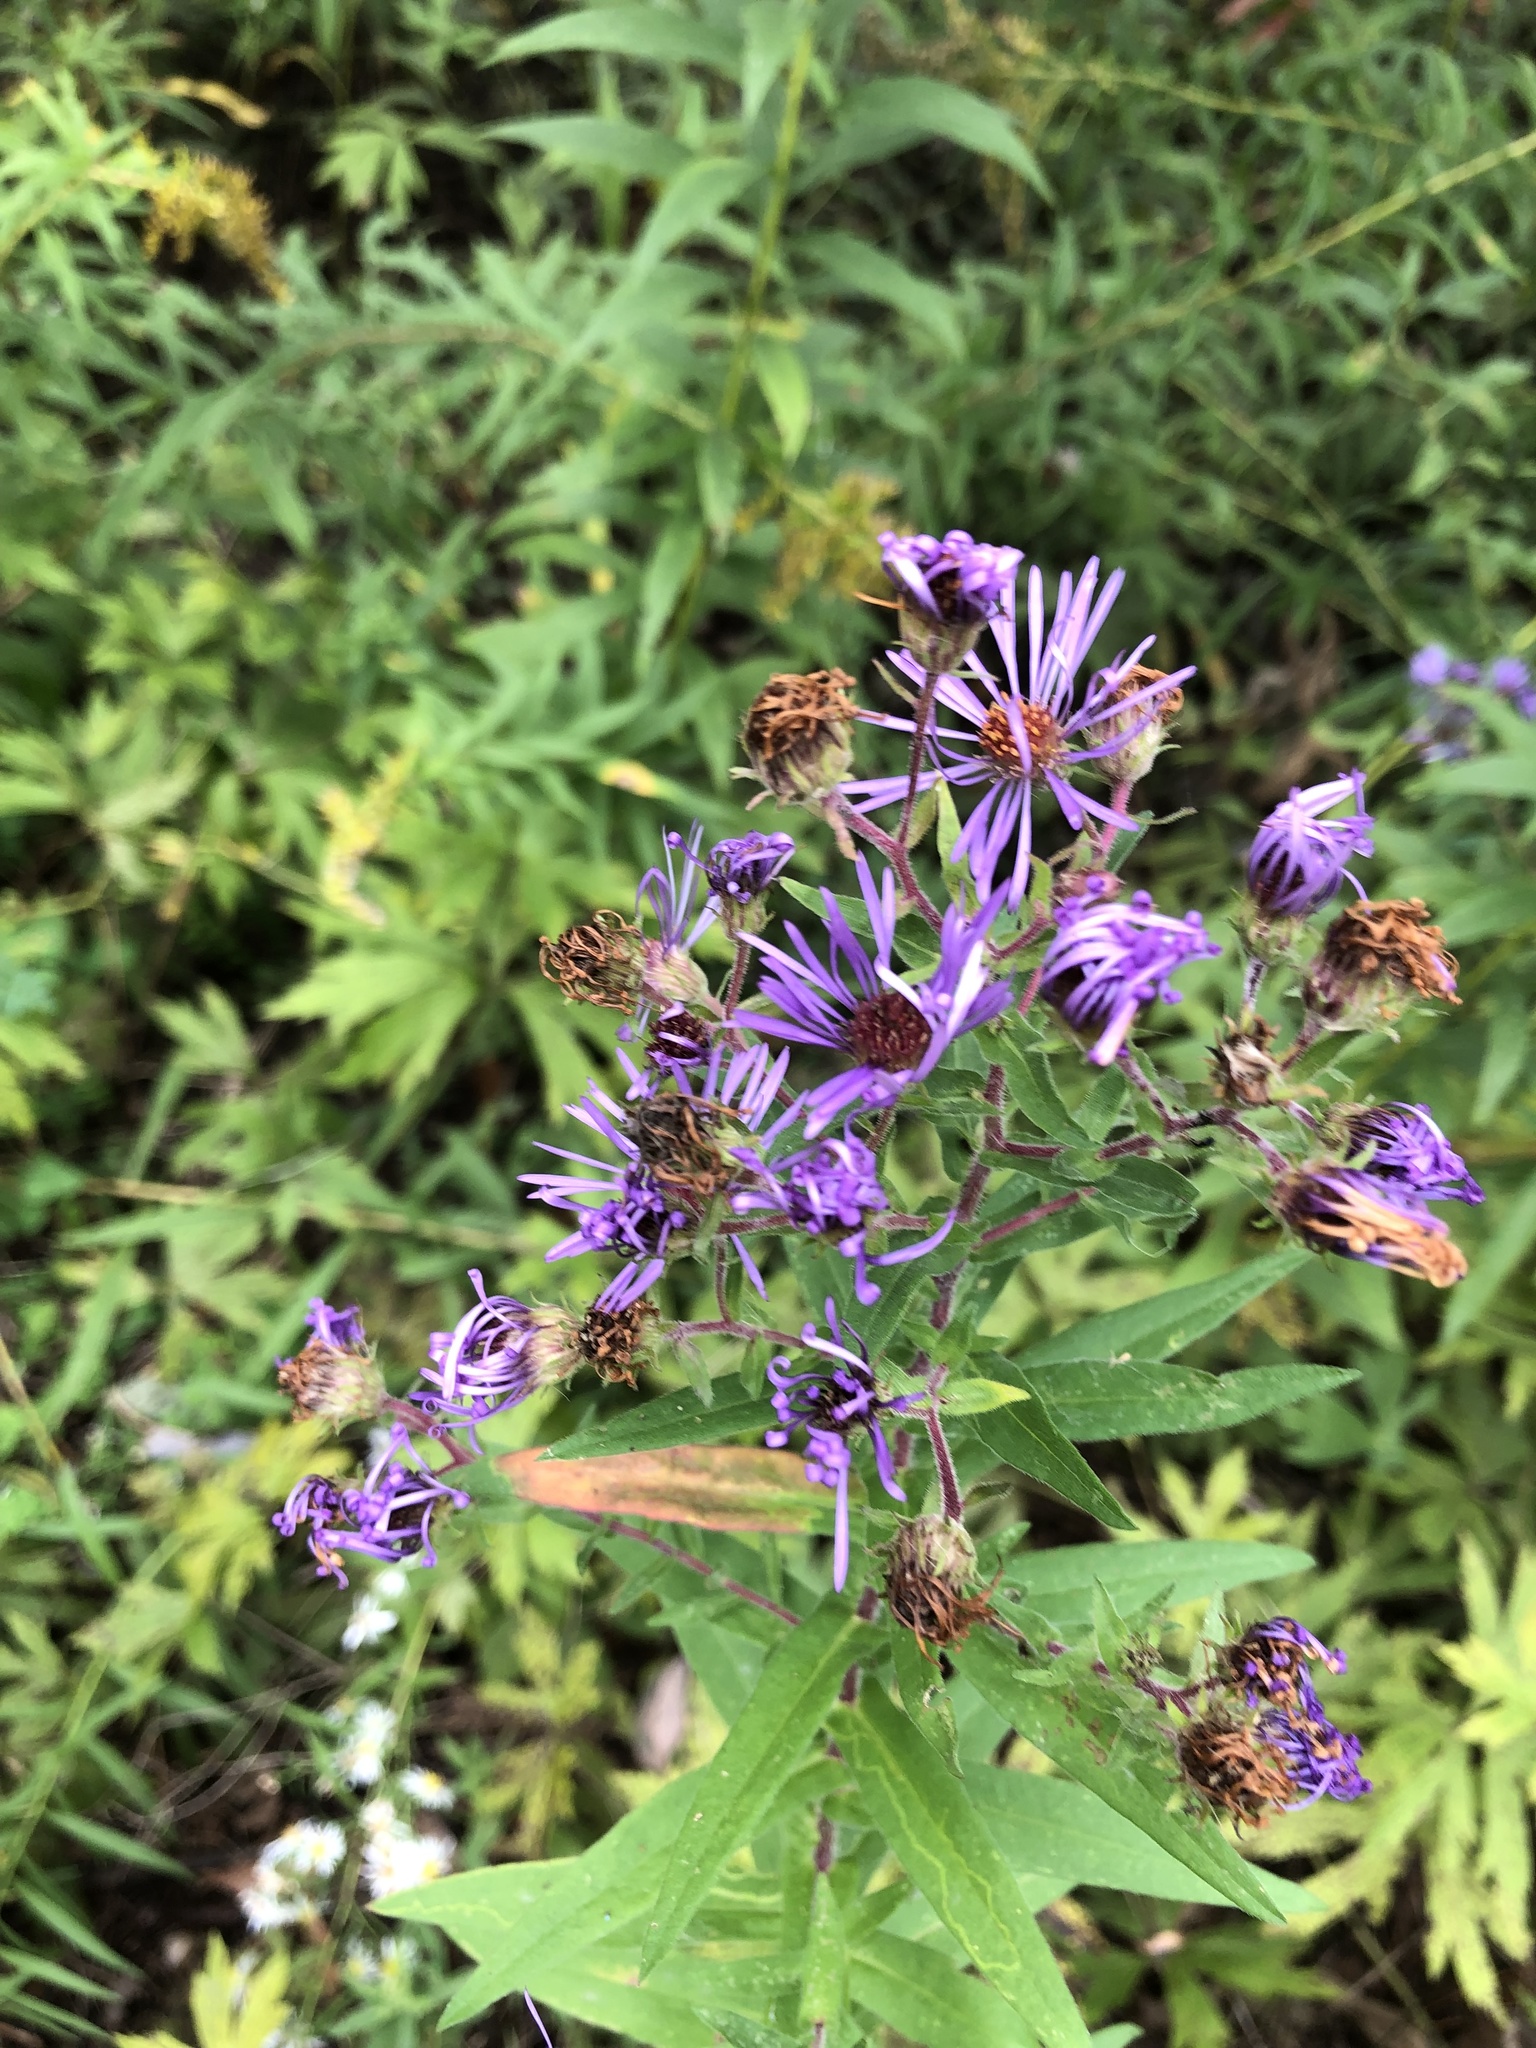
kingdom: Plantae
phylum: Tracheophyta
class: Magnoliopsida
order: Asterales
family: Asteraceae
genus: Symphyotrichum
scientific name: Symphyotrichum novae-angliae
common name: Michaelmas daisy
